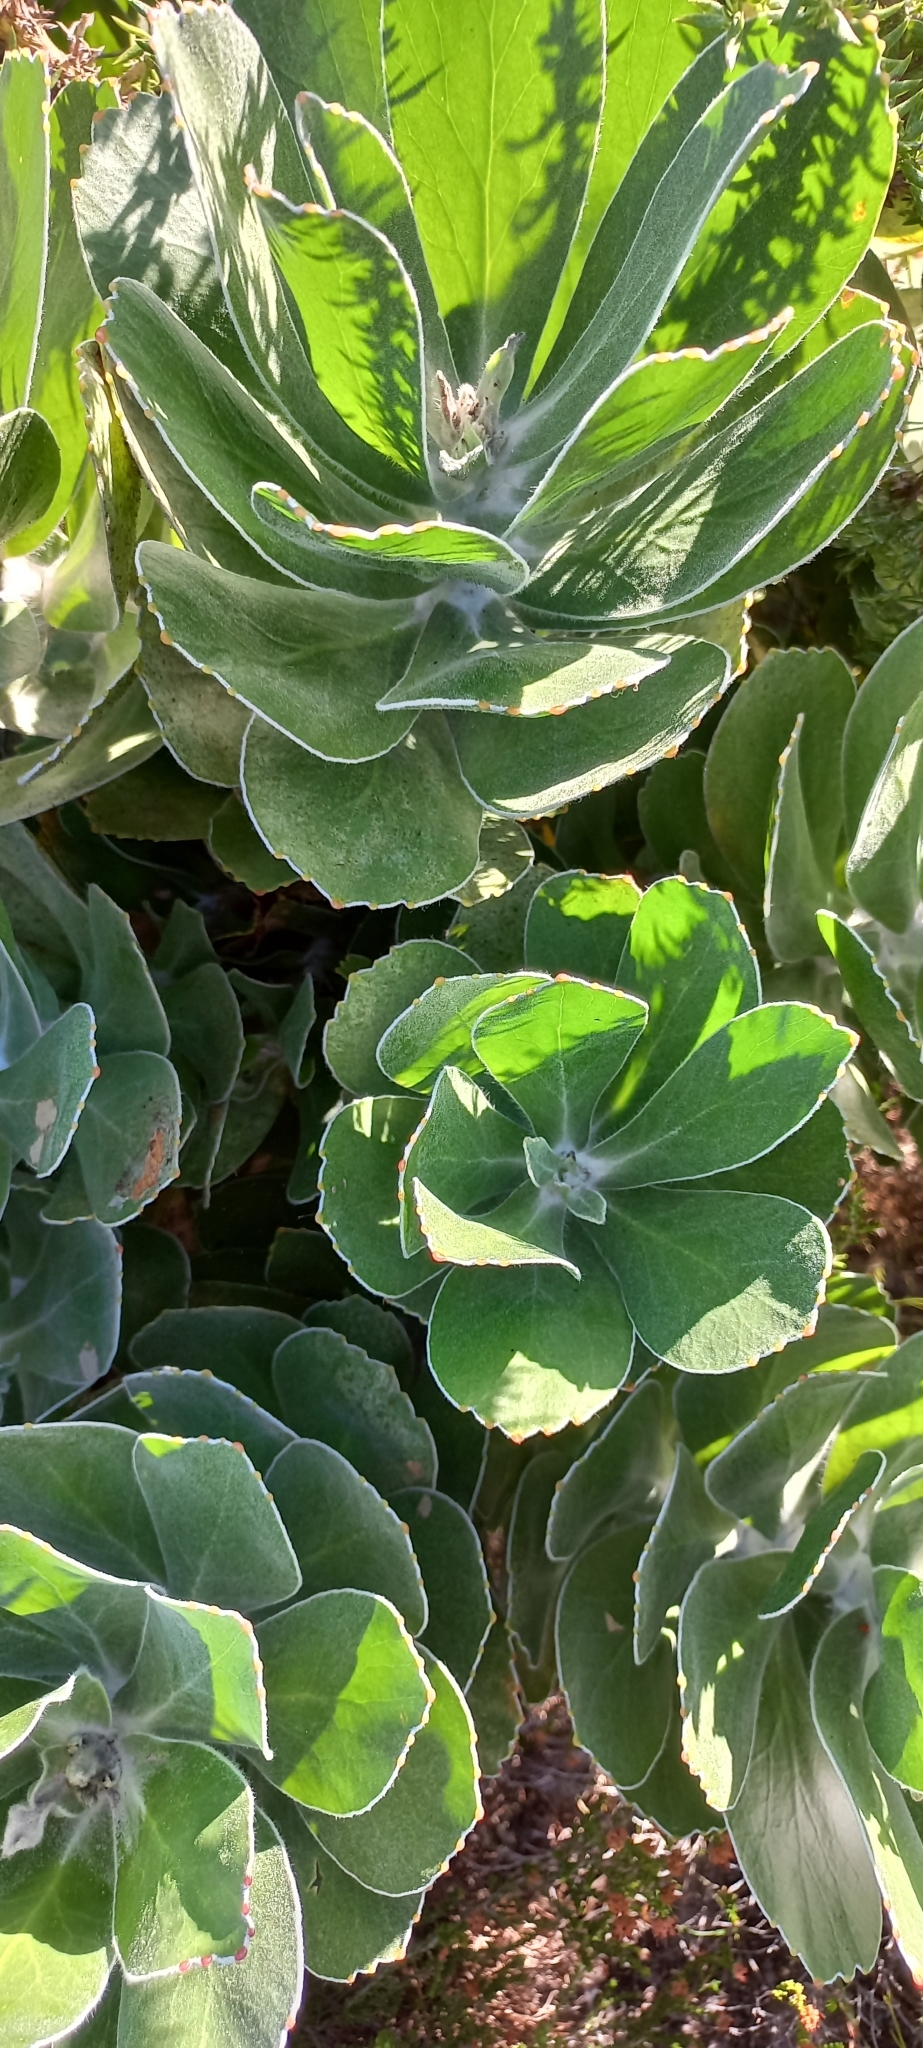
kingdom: Plantae
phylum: Tracheophyta
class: Magnoliopsida
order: Proteales
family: Proteaceae
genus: Leucospermum
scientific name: Leucospermum conocarpodendron
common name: Tree pincushion
